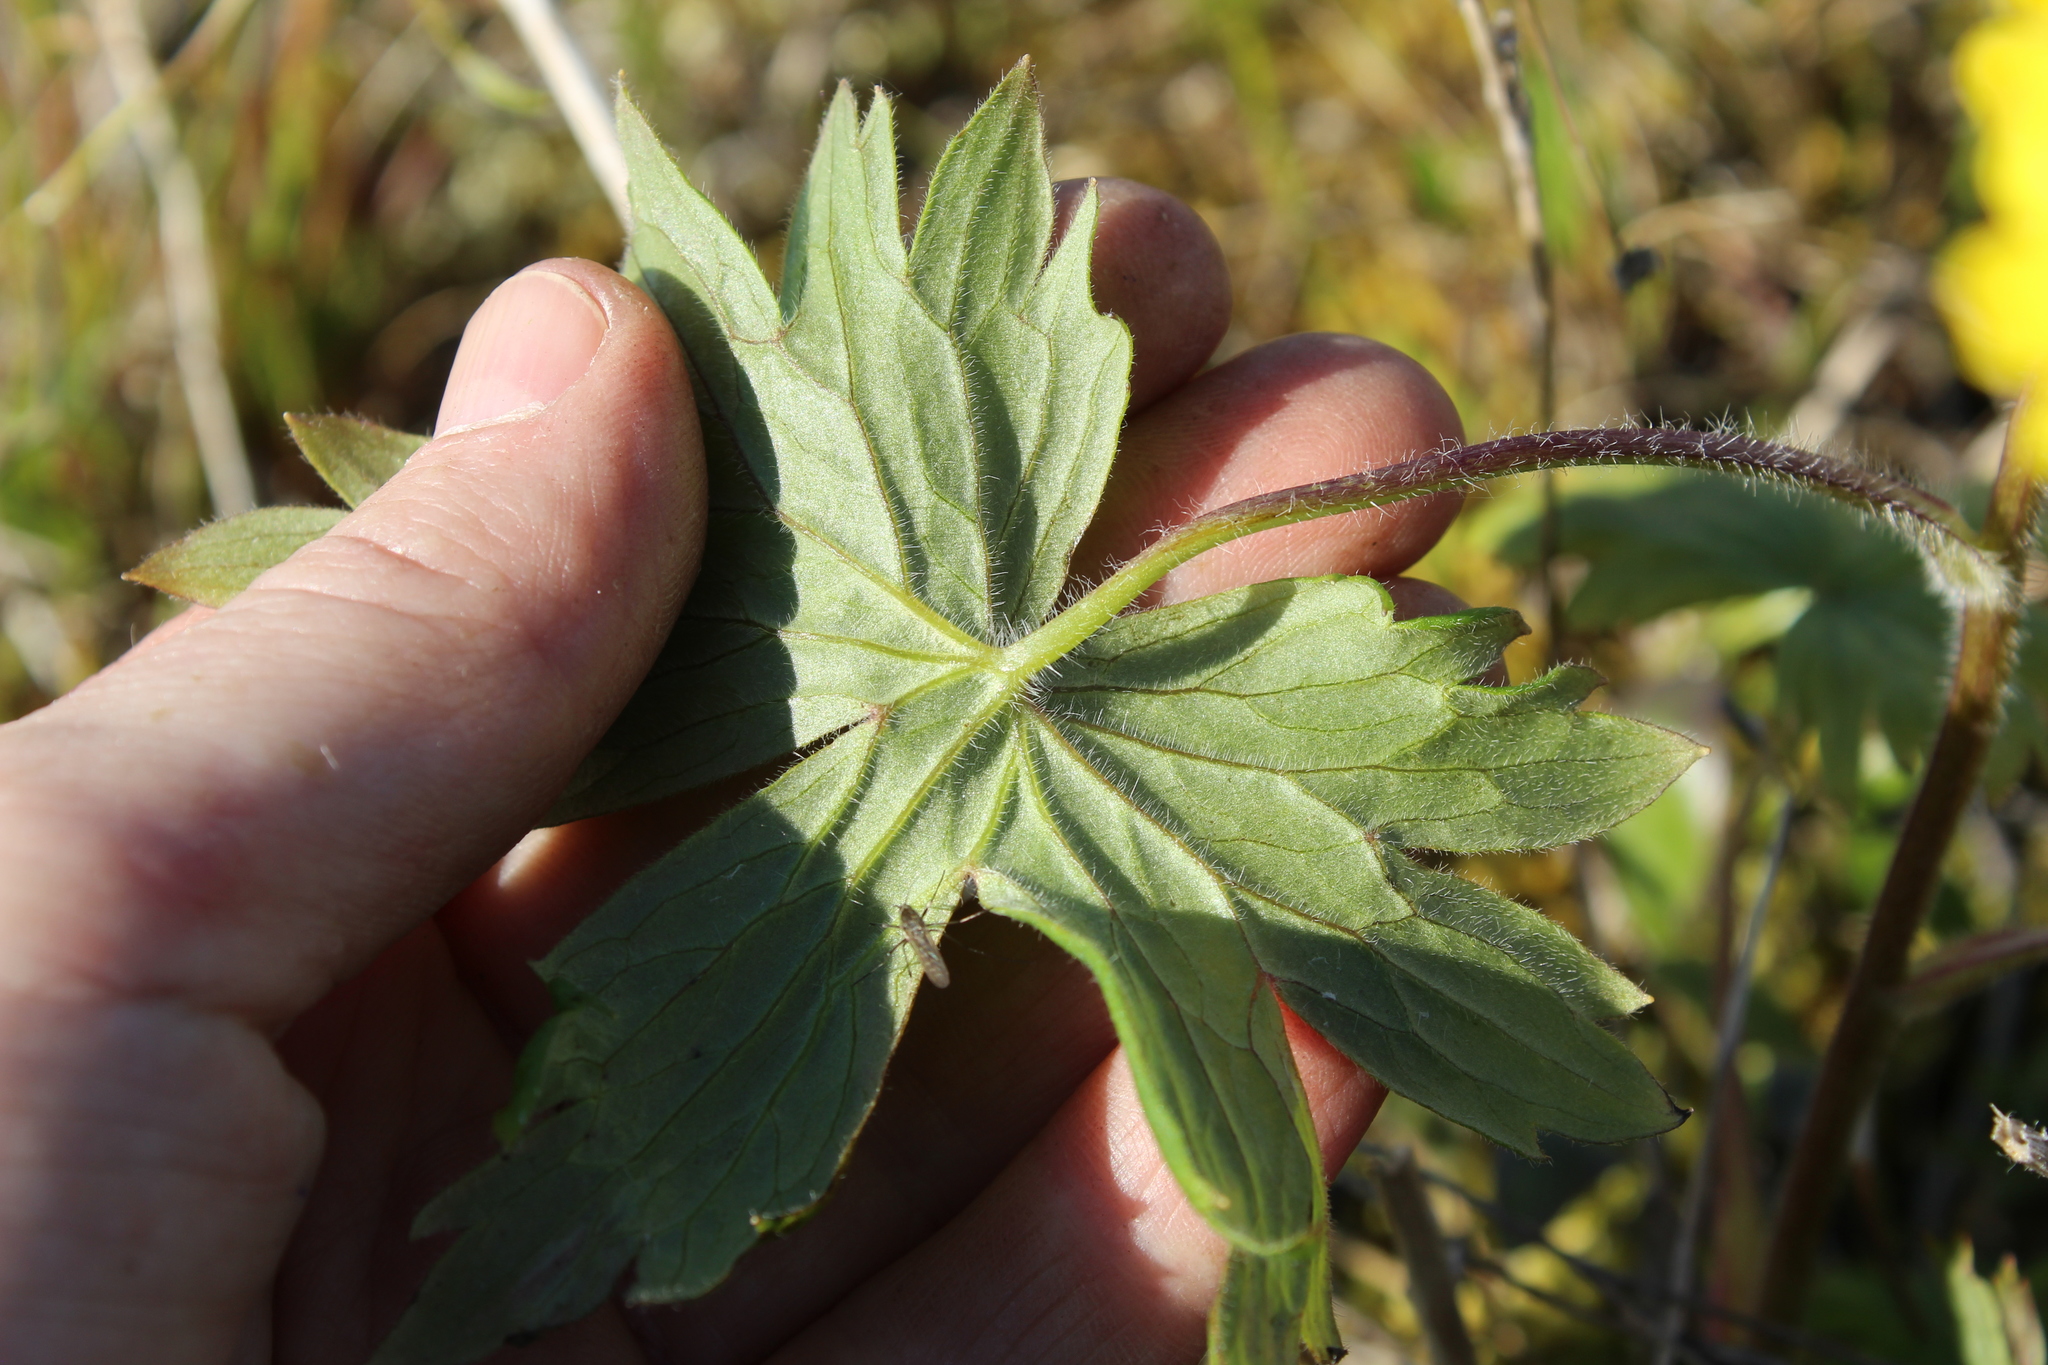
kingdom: Plantae
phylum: Tracheophyta
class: Magnoliopsida
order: Rosales
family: Rosaceae
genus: Potentilla
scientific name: Potentilla stipularis
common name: Circumpolar cinquefoil
